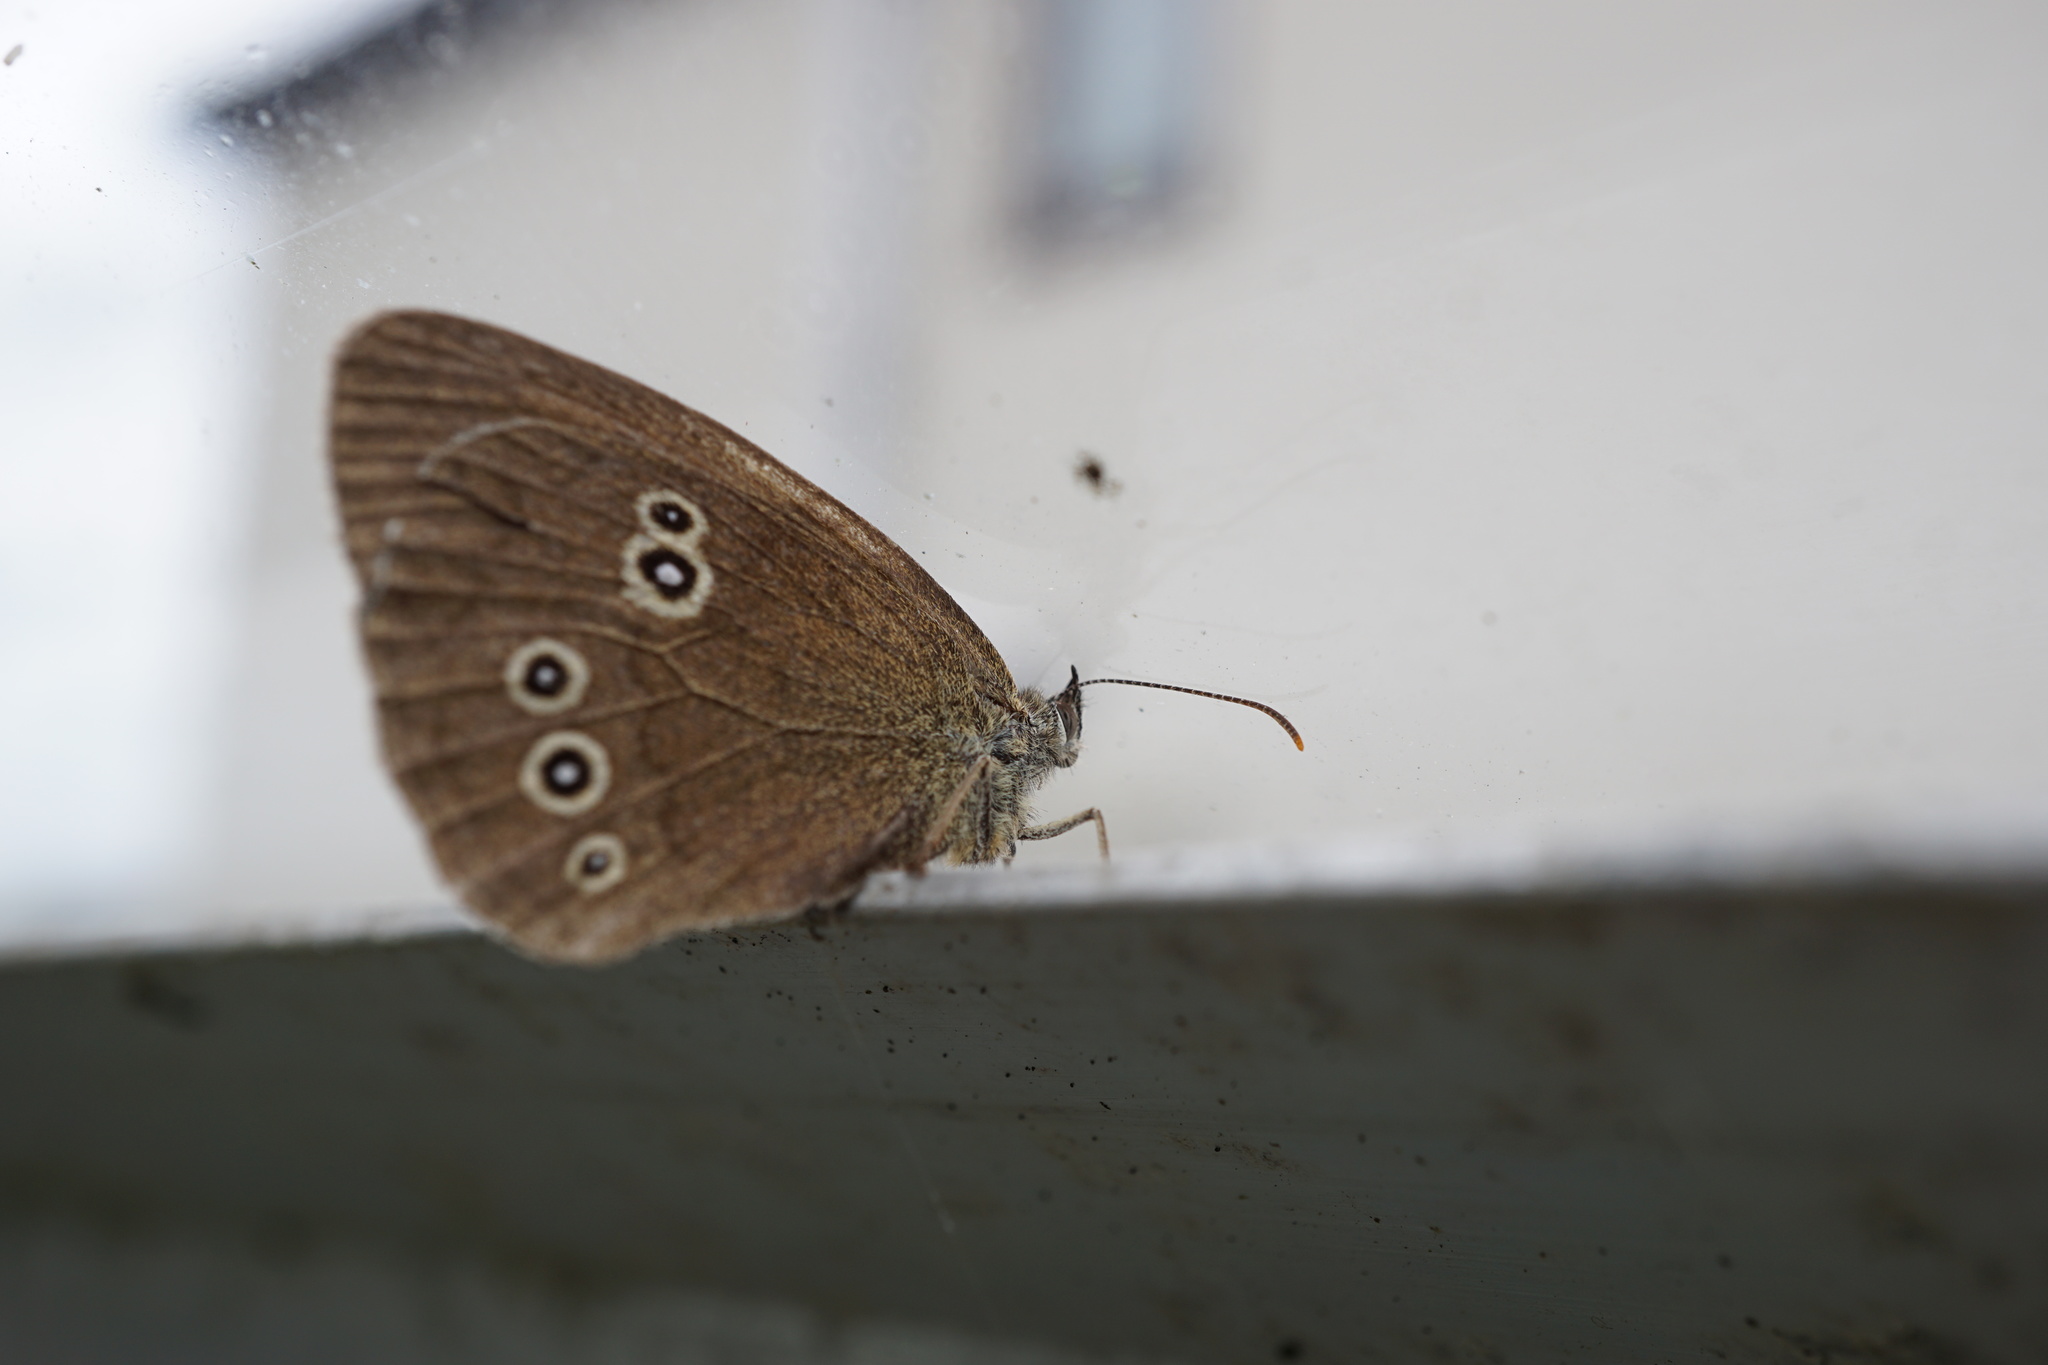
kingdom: Animalia
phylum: Arthropoda
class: Insecta
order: Lepidoptera
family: Nymphalidae
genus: Aphantopus
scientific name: Aphantopus hyperantus
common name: Ringlet
